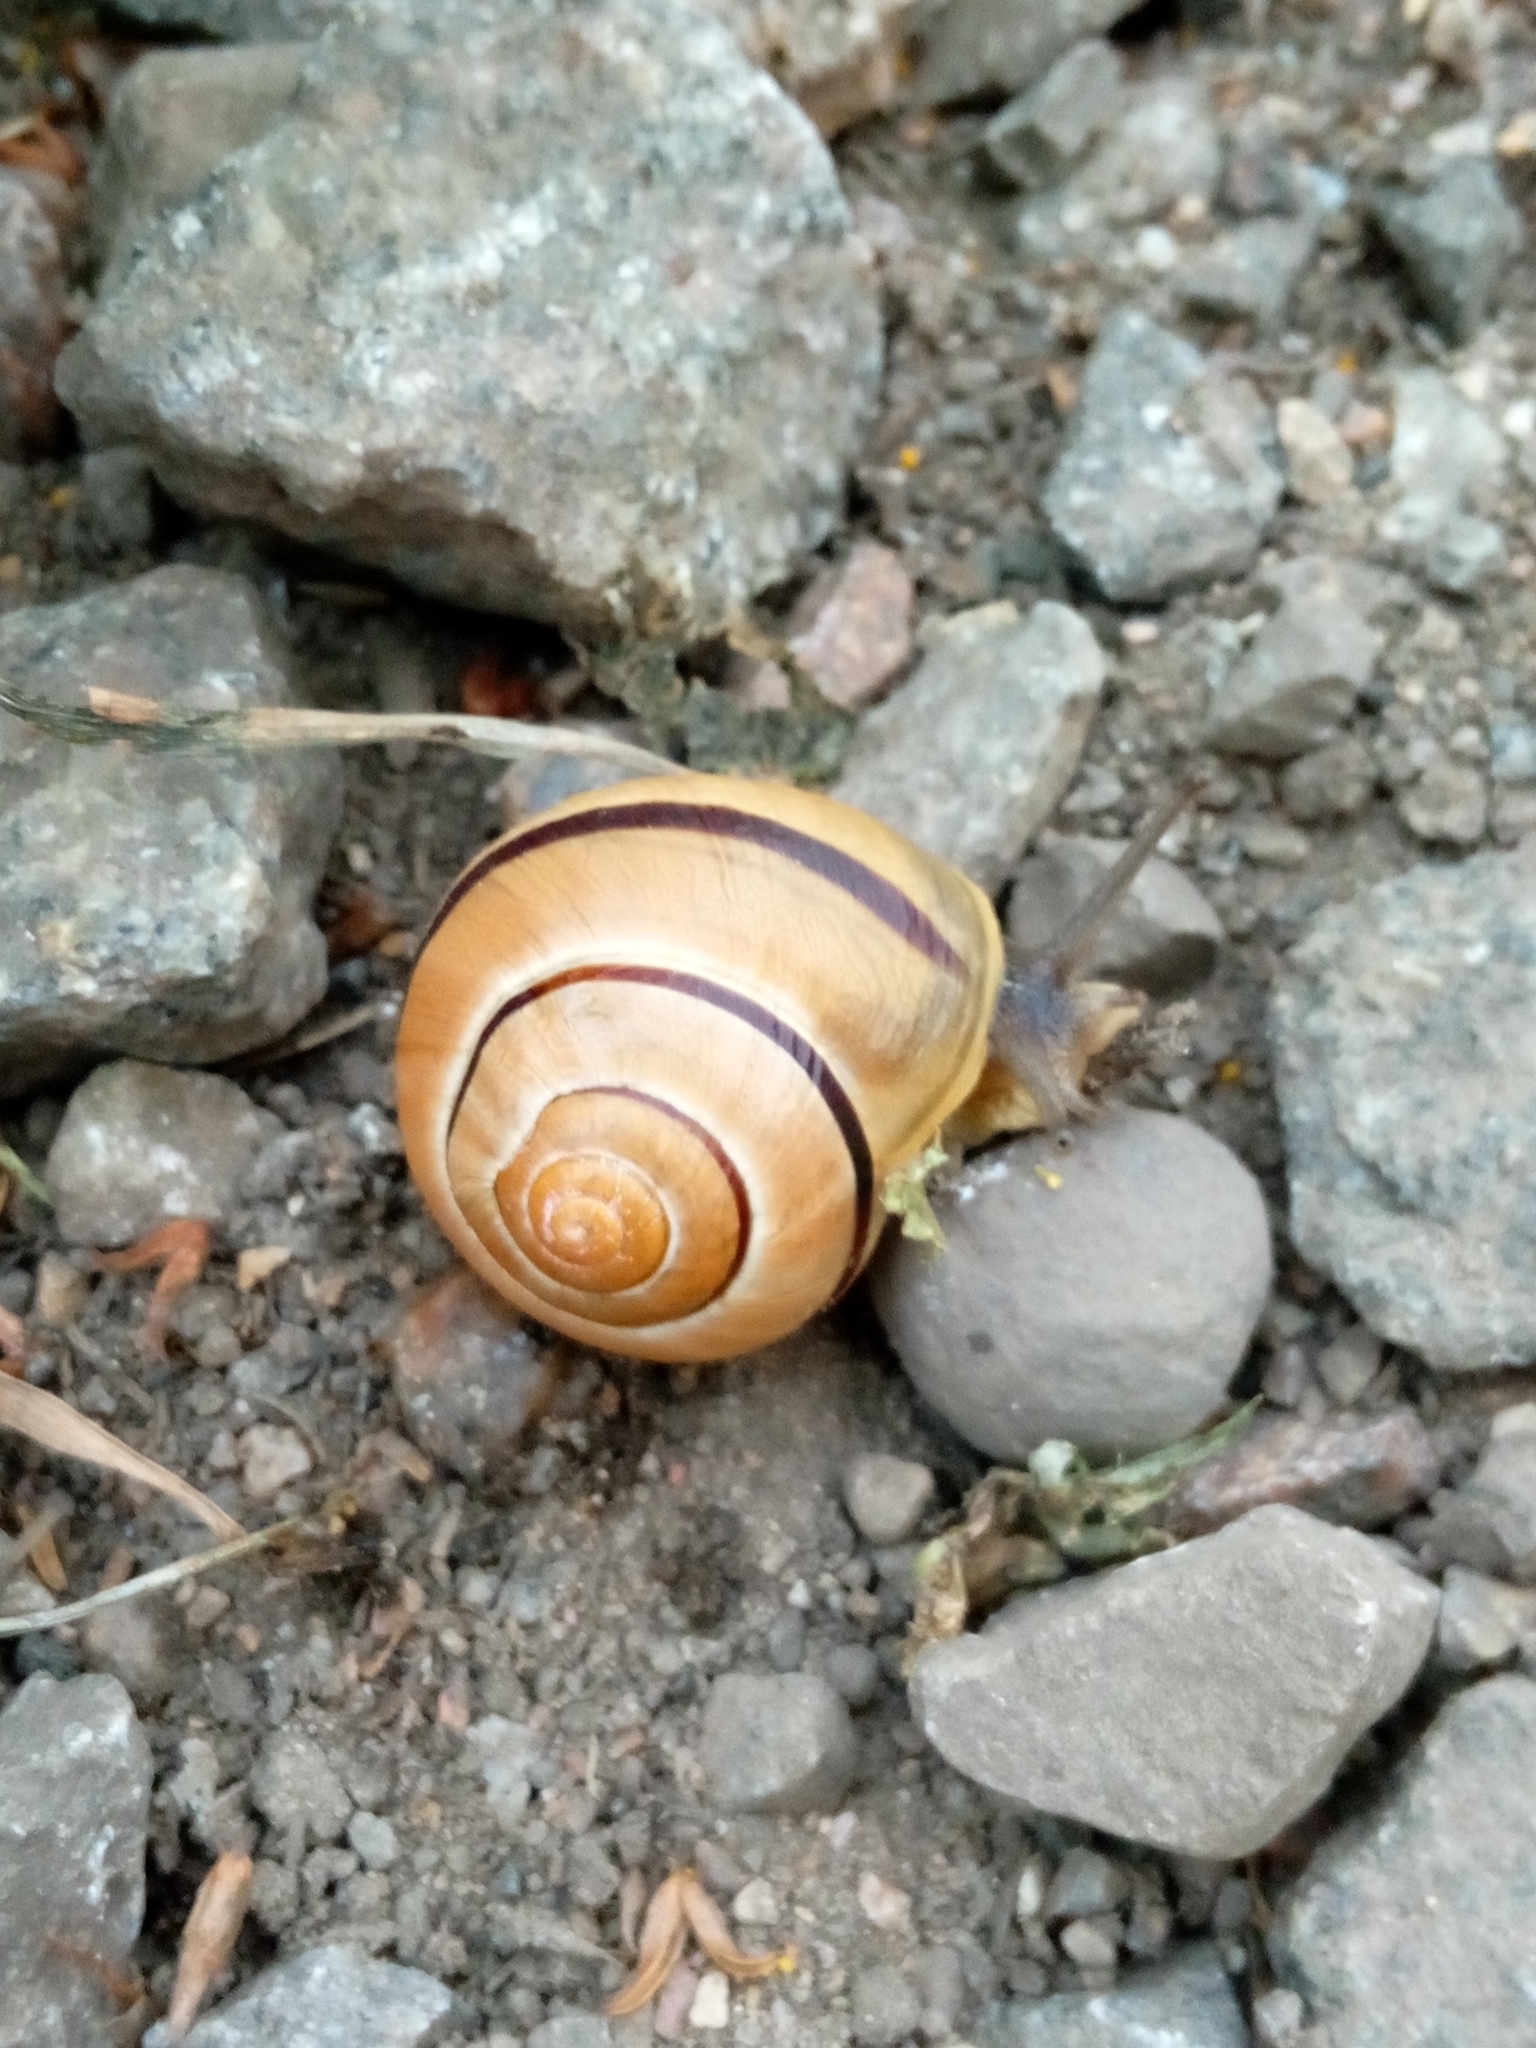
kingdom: Animalia
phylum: Mollusca
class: Gastropoda
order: Stylommatophora
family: Helicidae
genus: Cepaea
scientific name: Cepaea nemoralis
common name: Grovesnail
